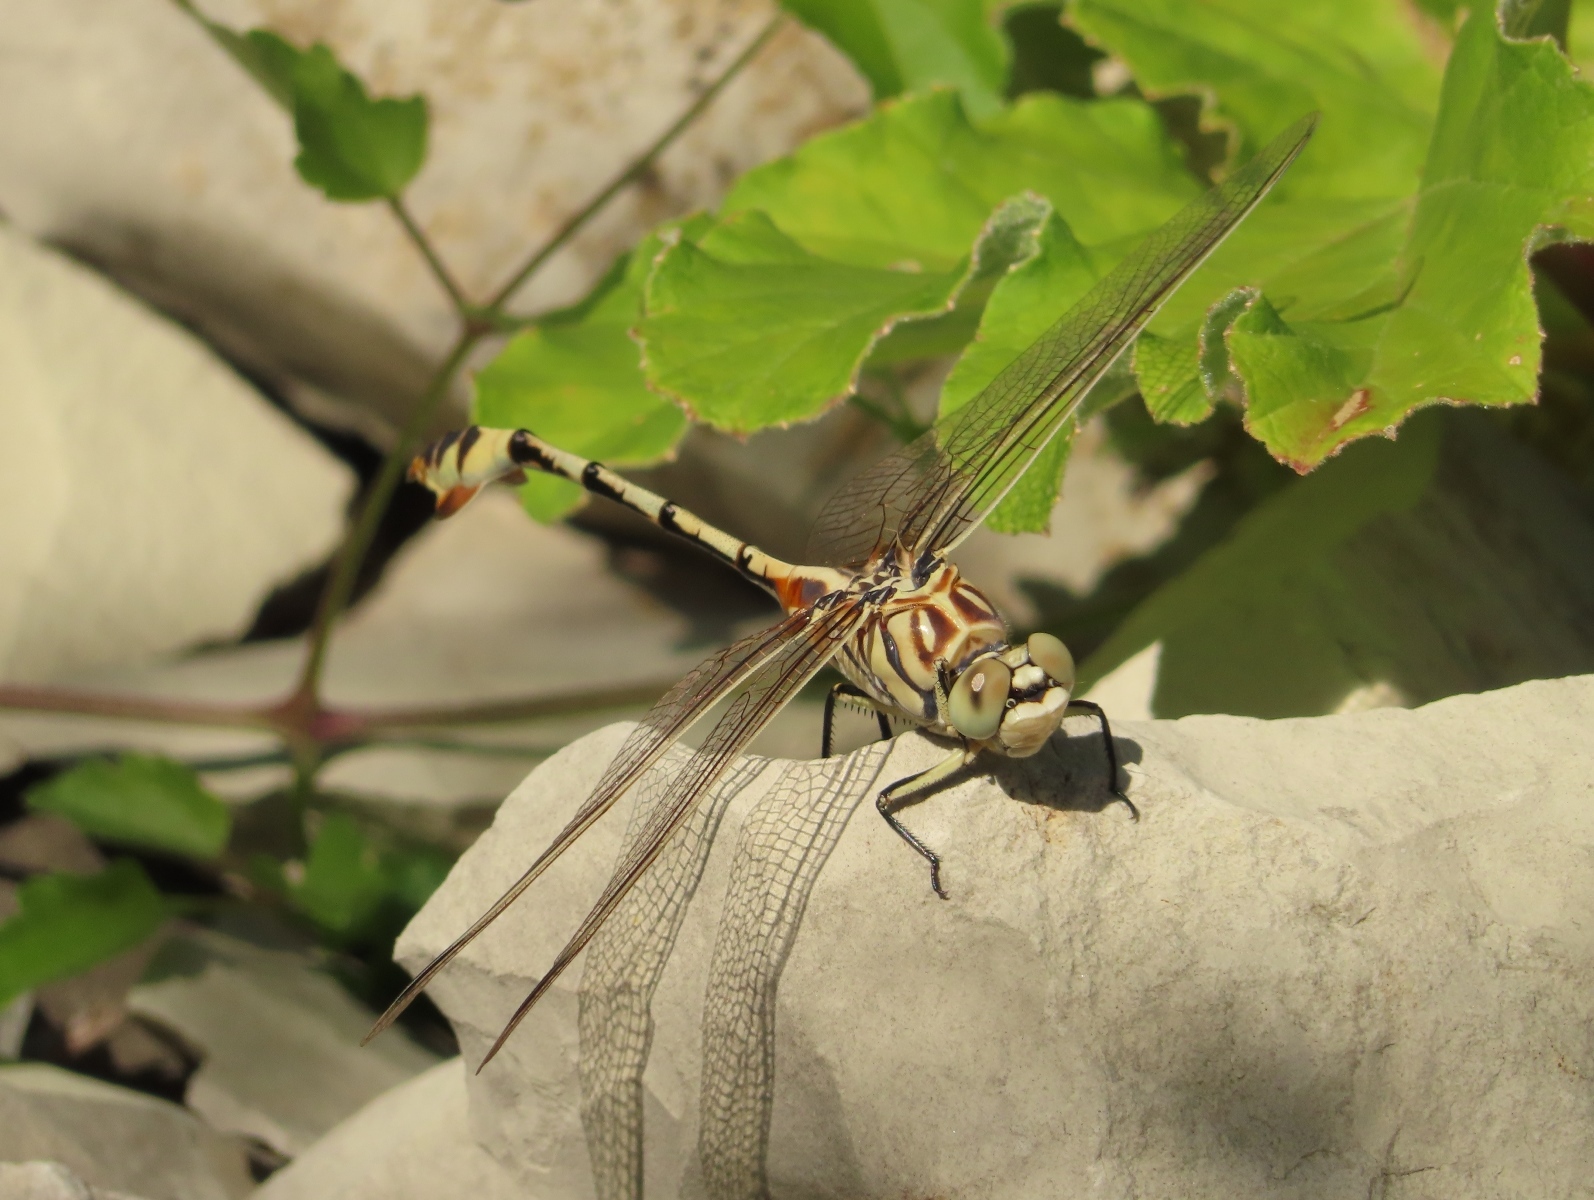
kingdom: Animalia
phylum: Arthropoda
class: Insecta
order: Odonata
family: Gomphidae
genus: Lindenia
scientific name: Lindenia tetraphylla
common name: Bladetail
